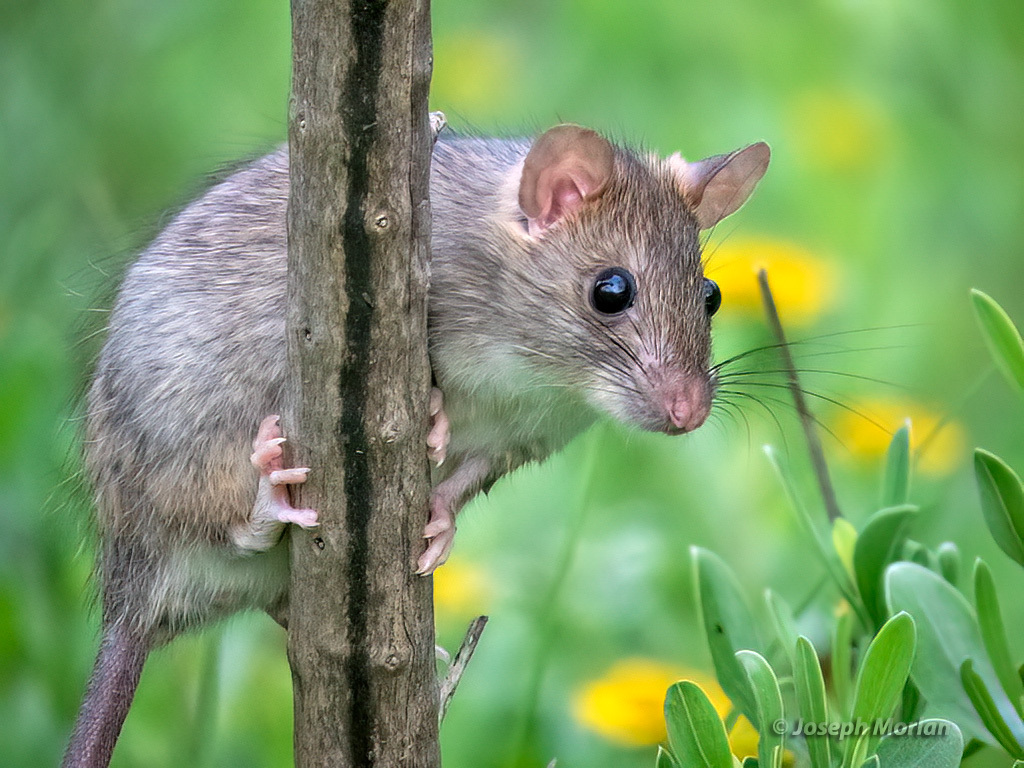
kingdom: Animalia
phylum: Chordata
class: Mammalia
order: Rodentia
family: Muridae
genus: Rattus
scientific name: Rattus rattus
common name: Black rat
